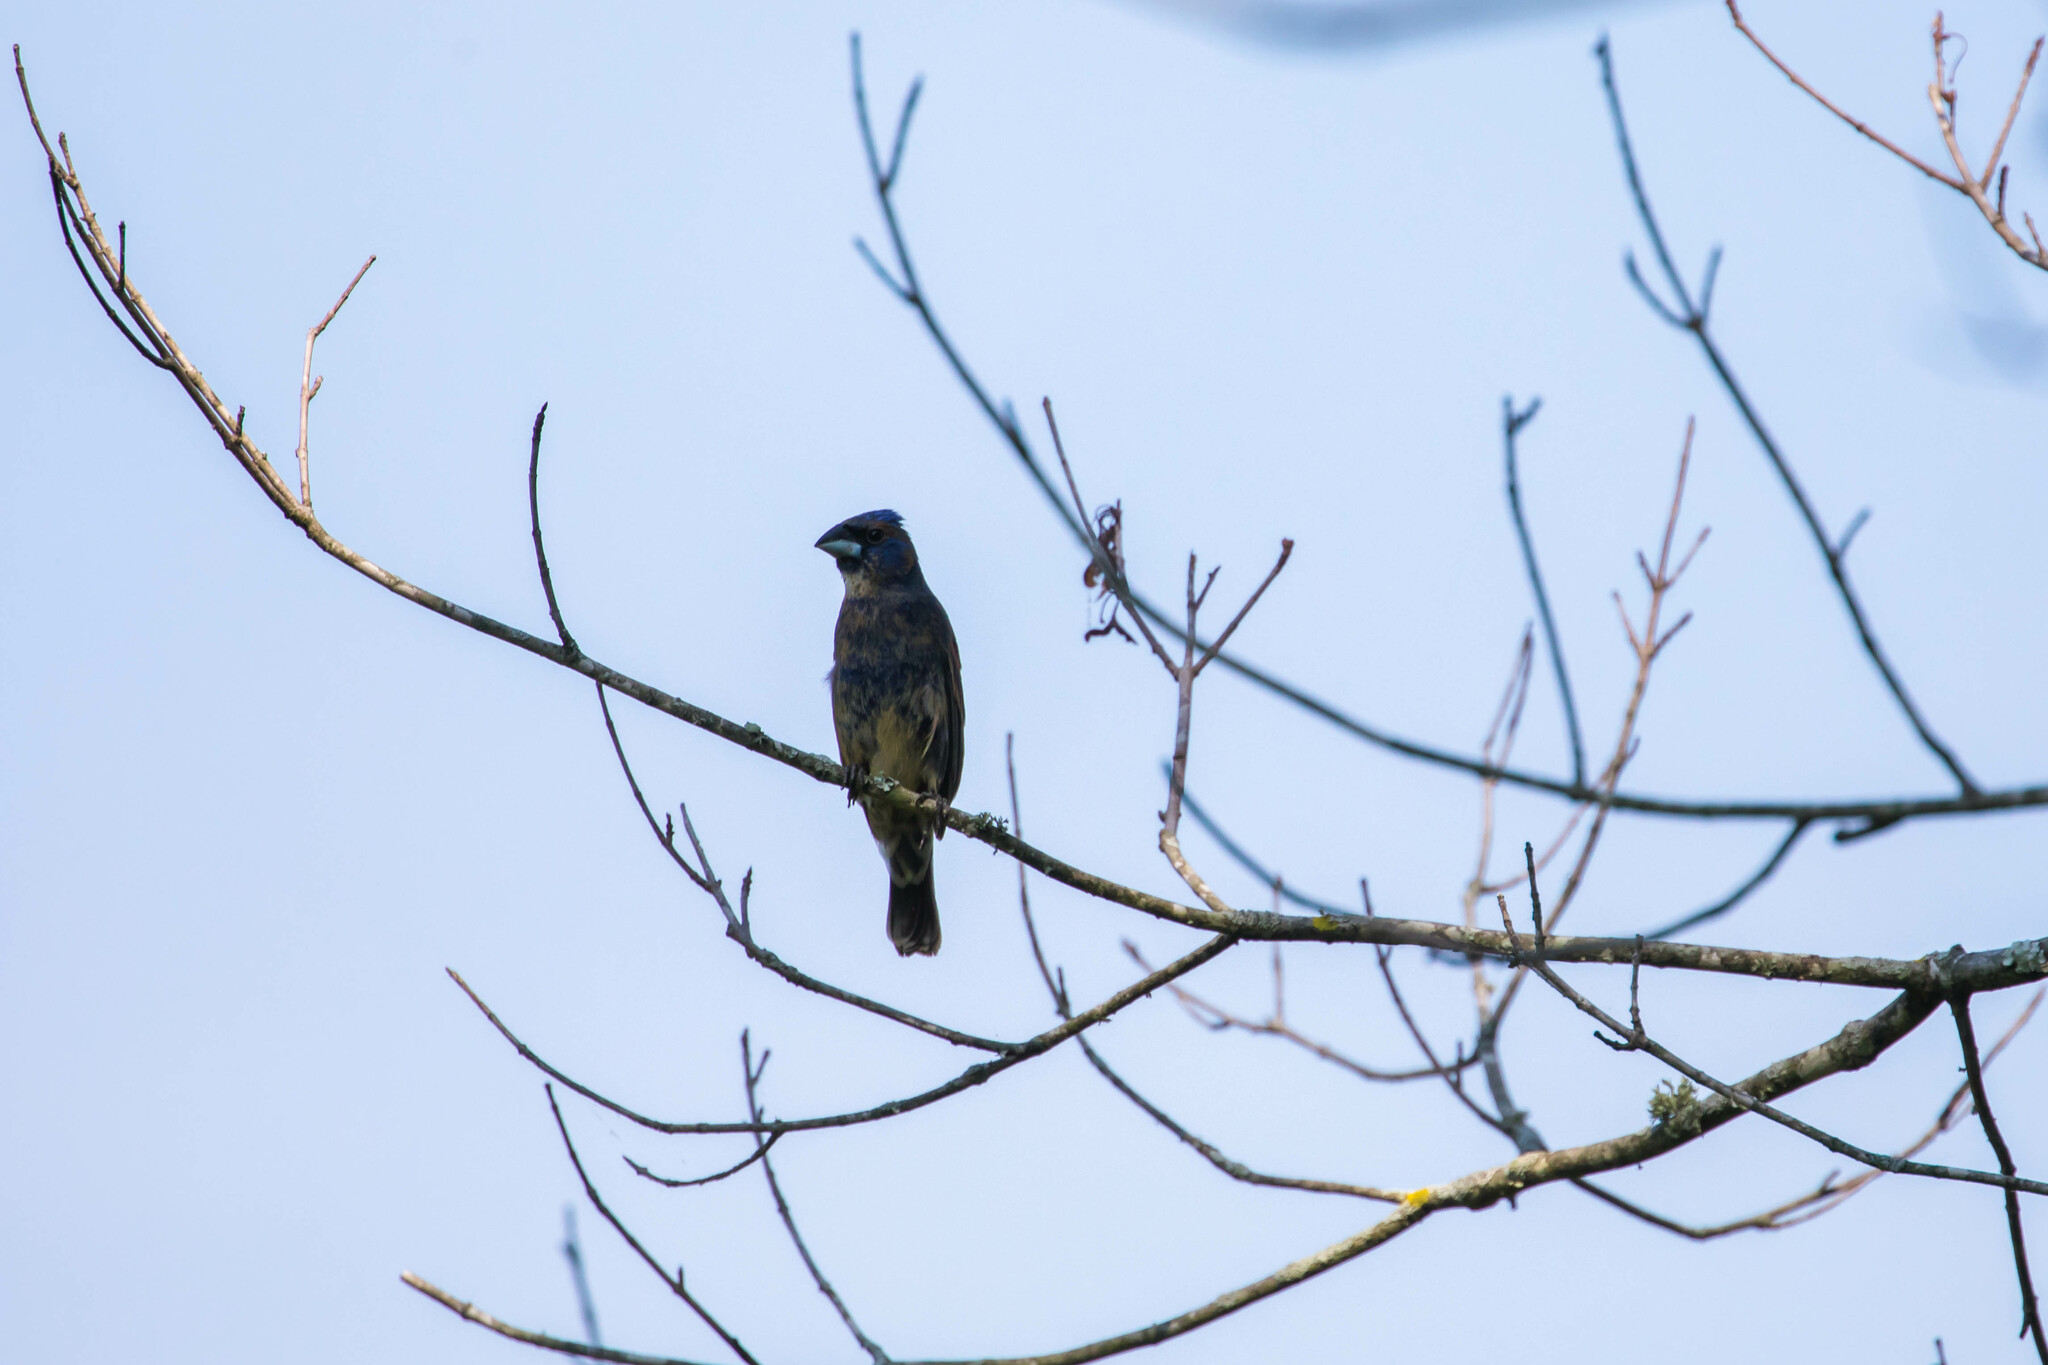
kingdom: Animalia
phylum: Chordata
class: Aves
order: Passeriformes
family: Cardinalidae
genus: Passerina
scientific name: Passerina caerulea
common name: Blue grosbeak
